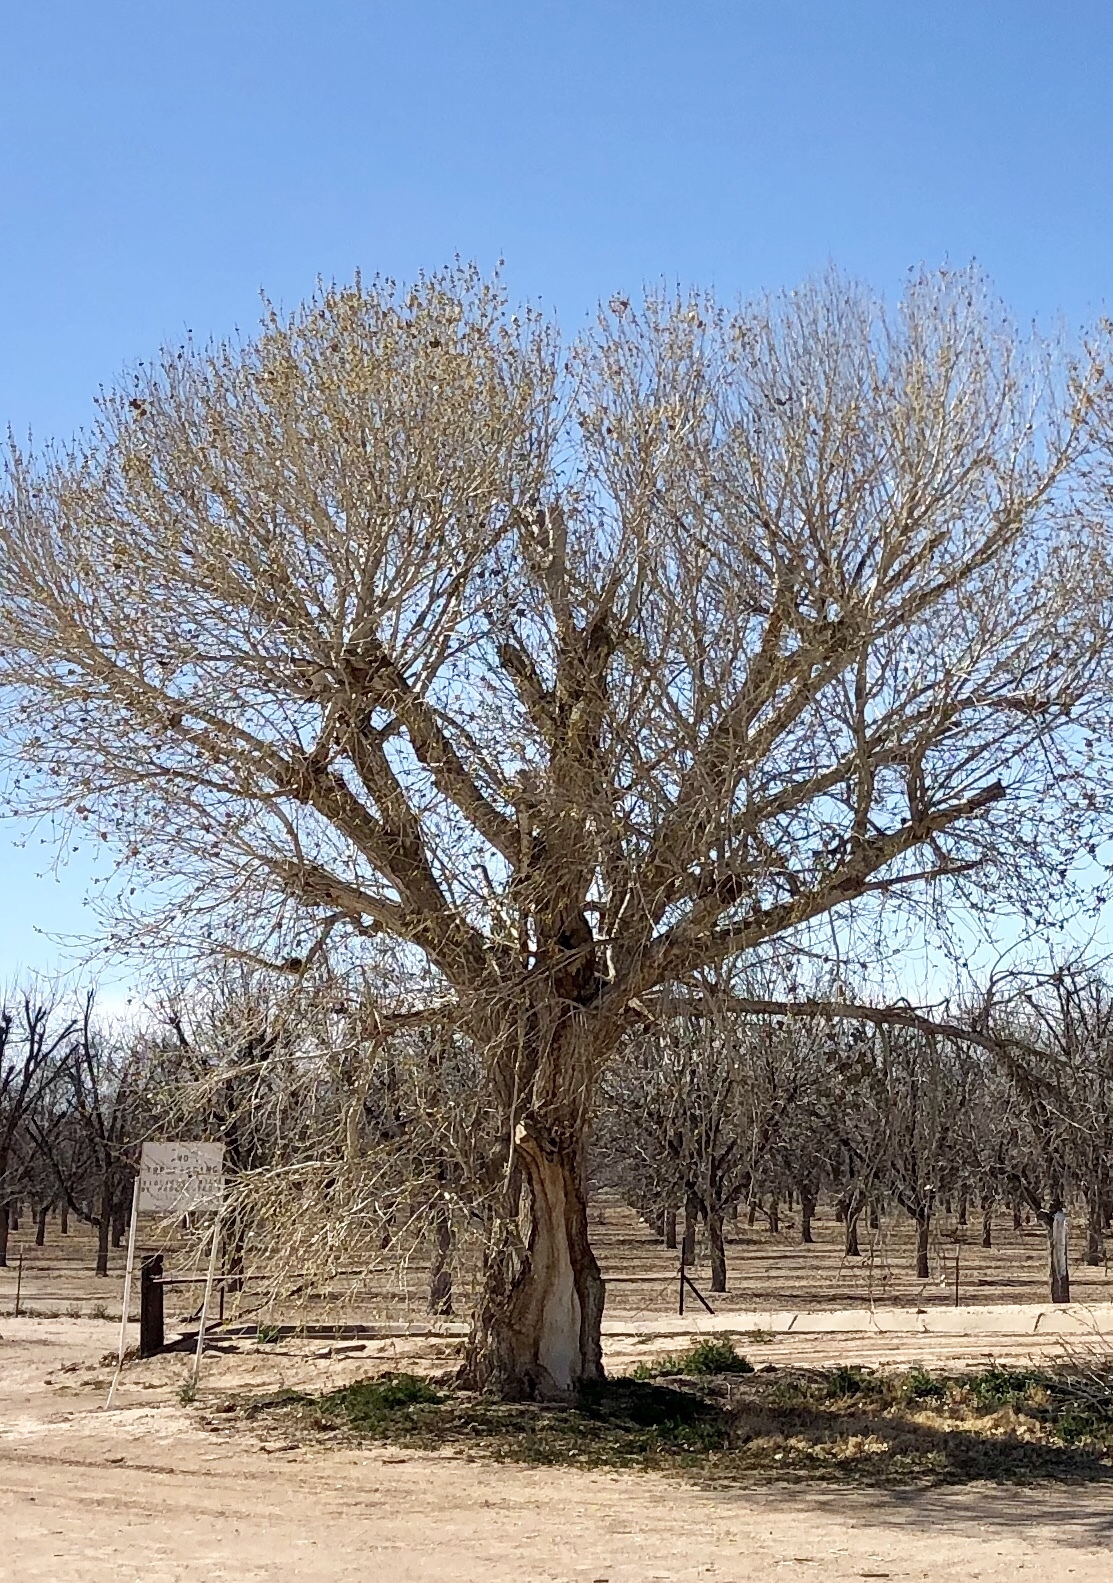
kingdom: Plantae
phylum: Tracheophyta
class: Magnoliopsida
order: Malpighiales
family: Salicaceae
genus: Populus
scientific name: Populus deltoides
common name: Eastern cottonwood
